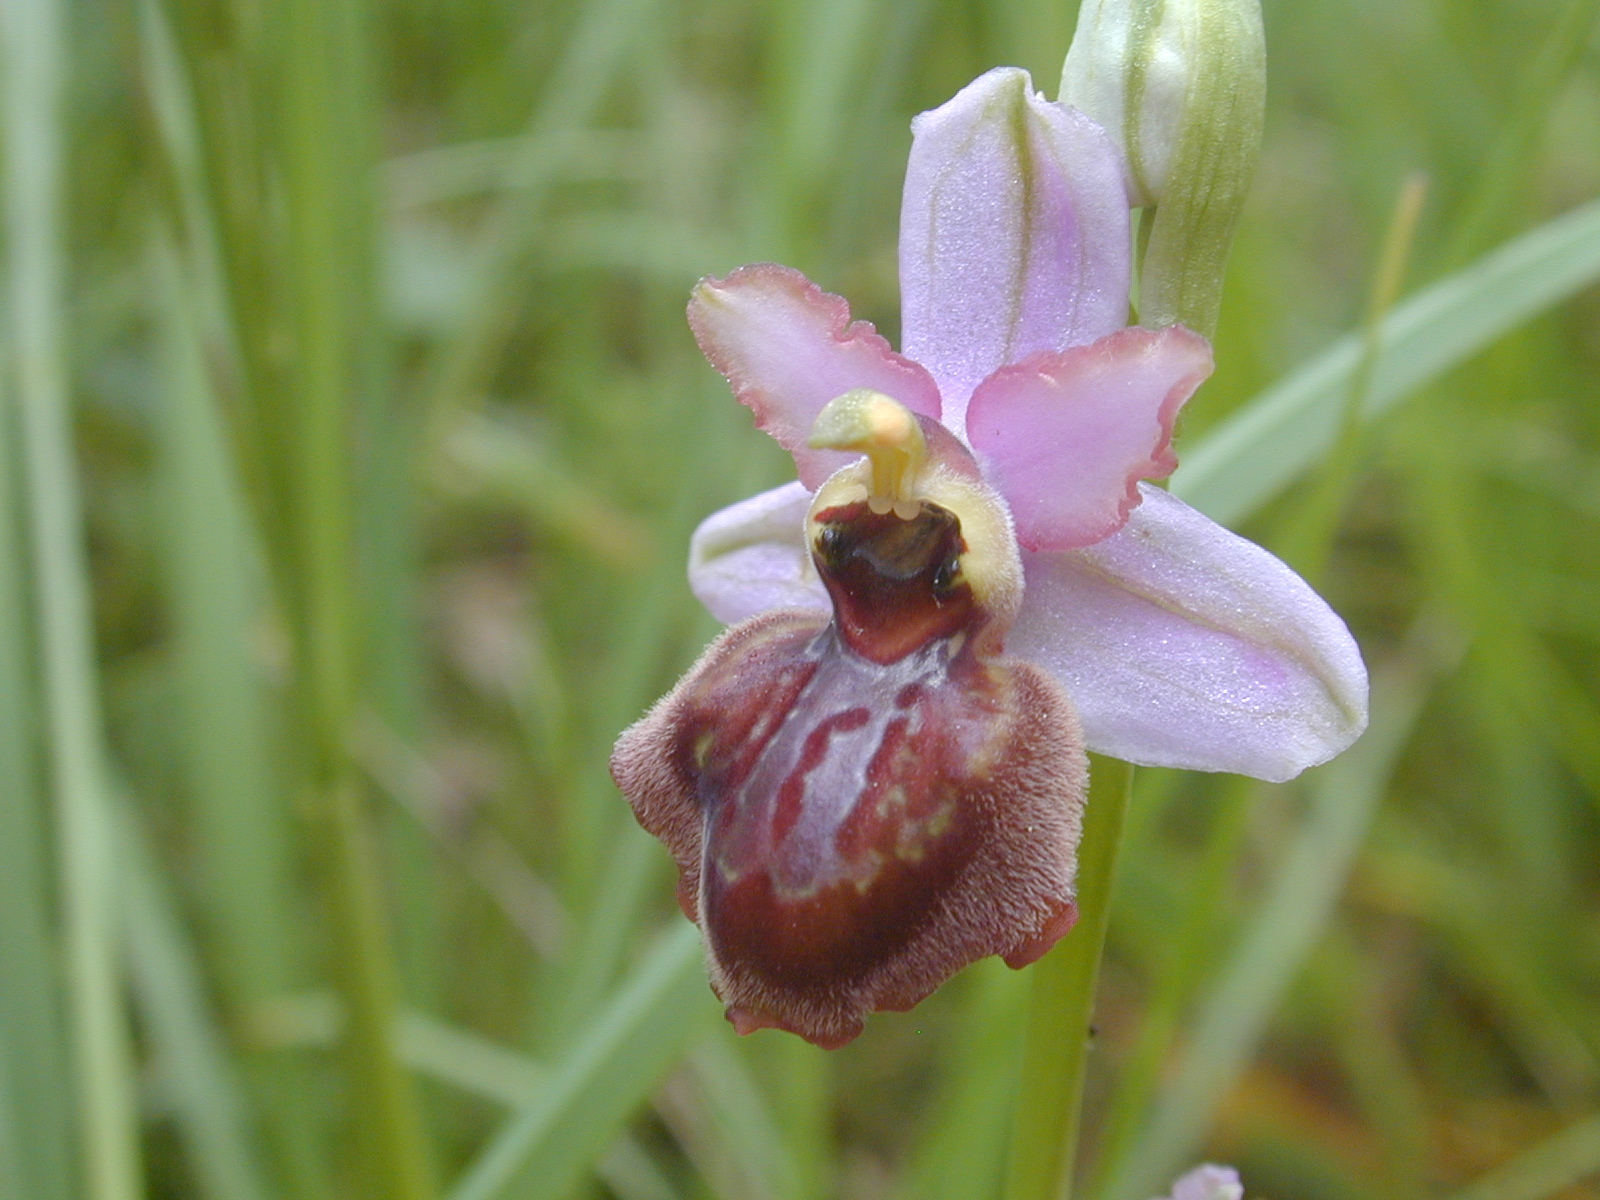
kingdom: Plantae
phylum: Tracheophyta
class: Liliopsida
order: Asparagales
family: Orchidaceae
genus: Ophrys
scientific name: Ophrys sphegodes
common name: Early spider-orchid
